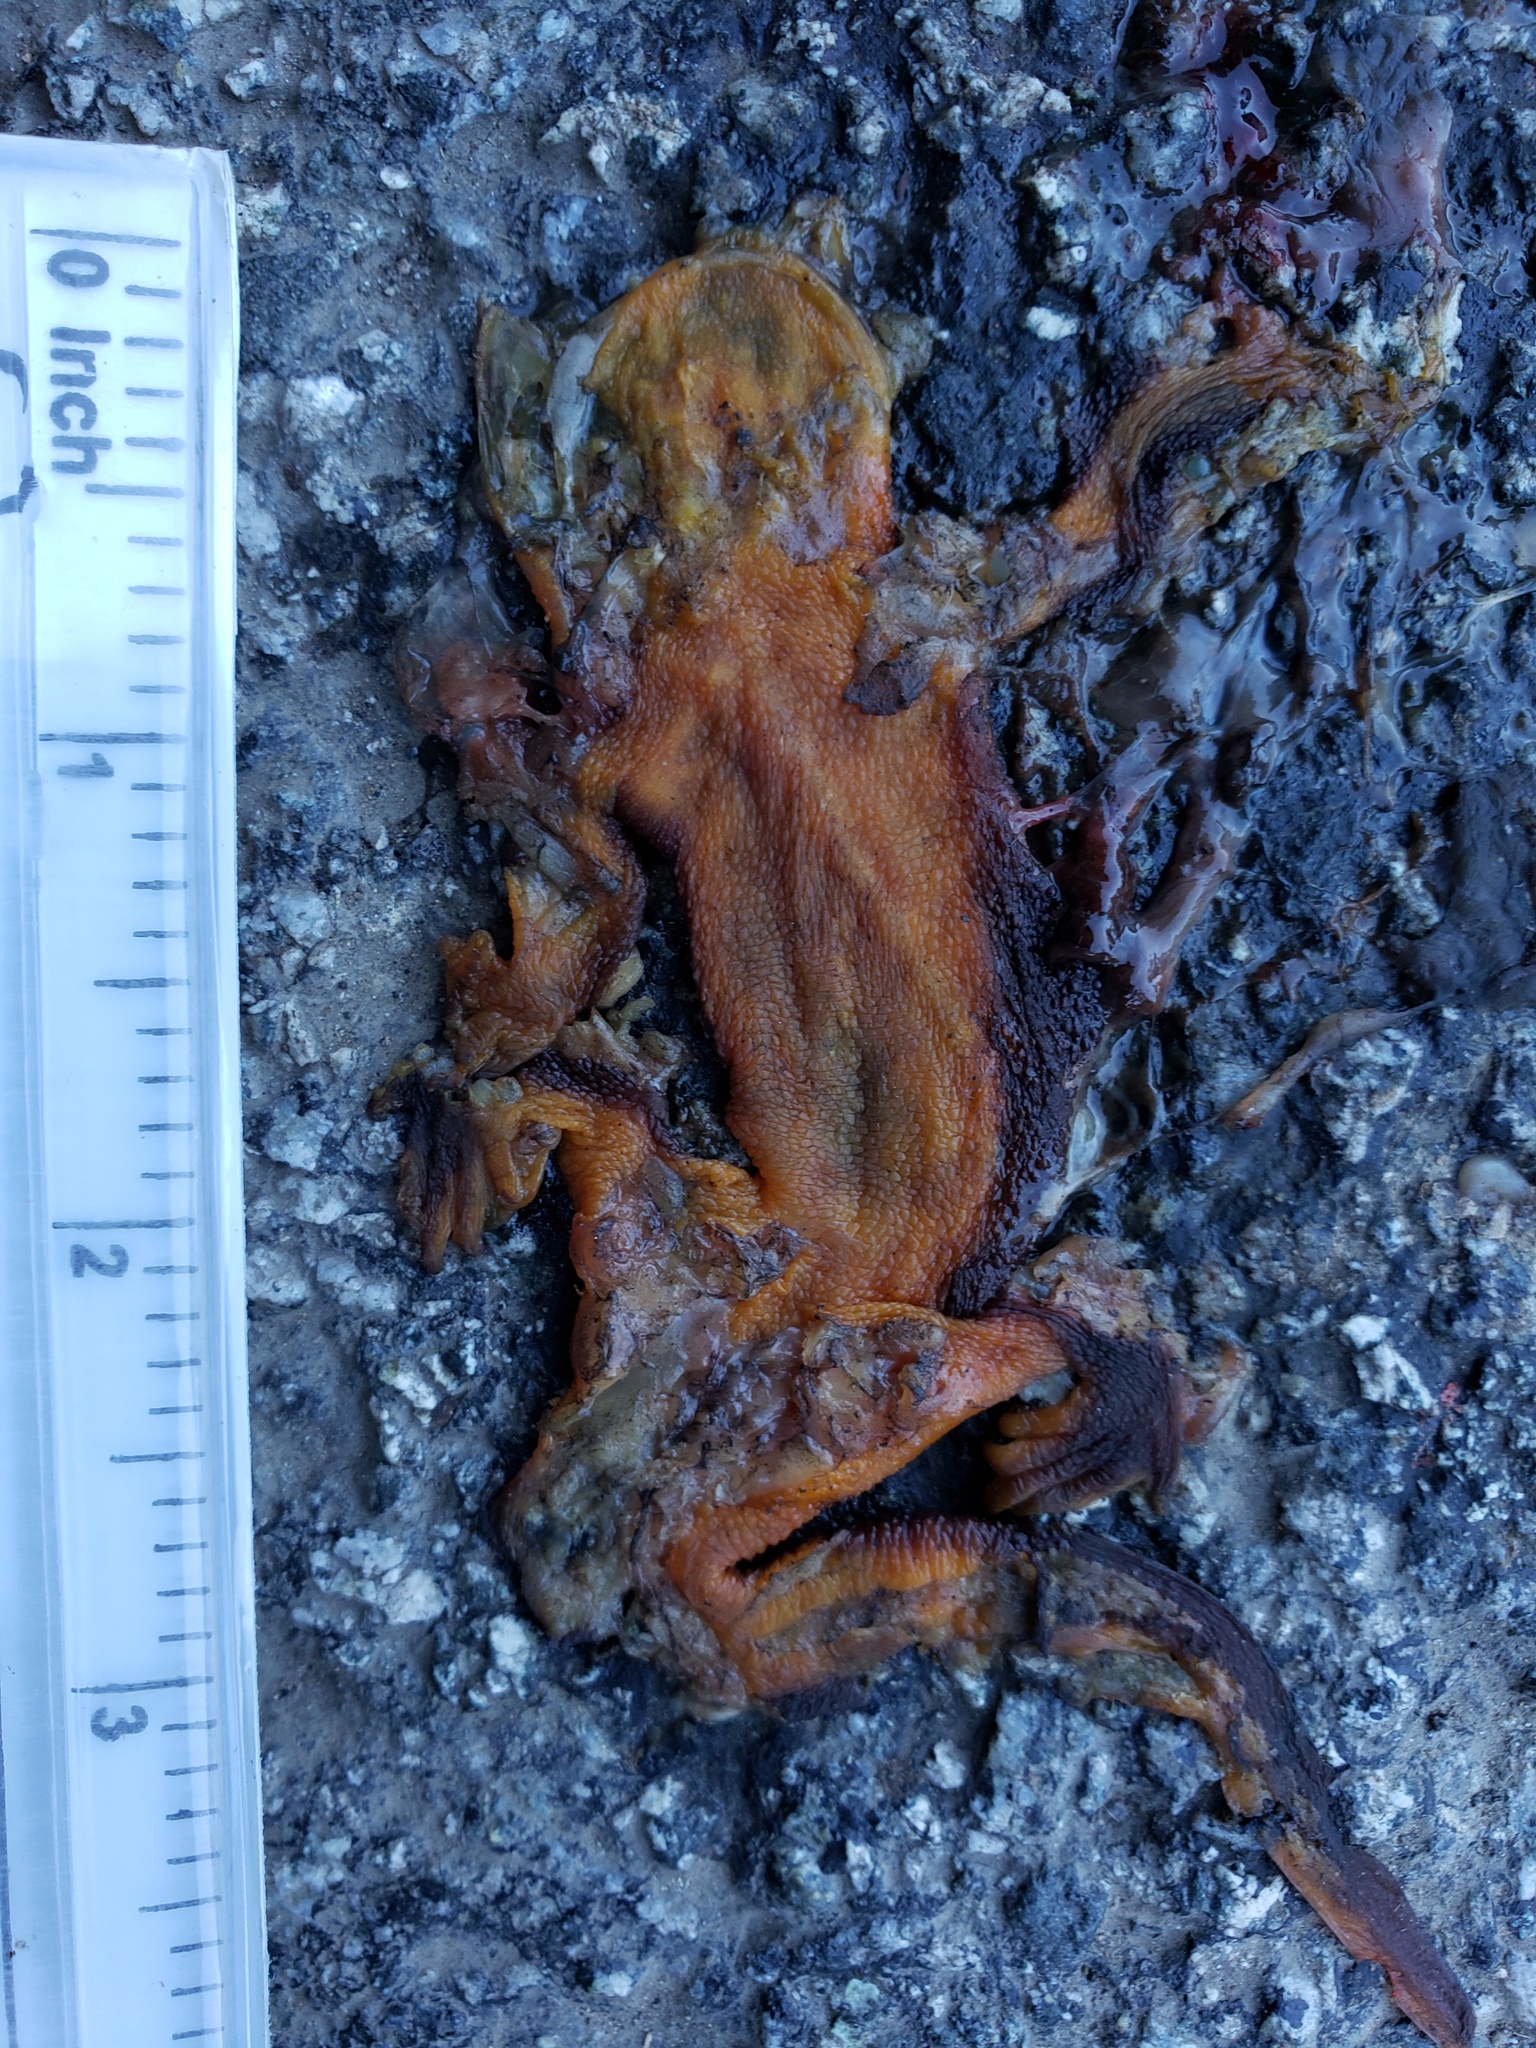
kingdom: Animalia
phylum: Chordata
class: Amphibia
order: Caudata
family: Salamandridae
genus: Taricha
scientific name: Taricha
